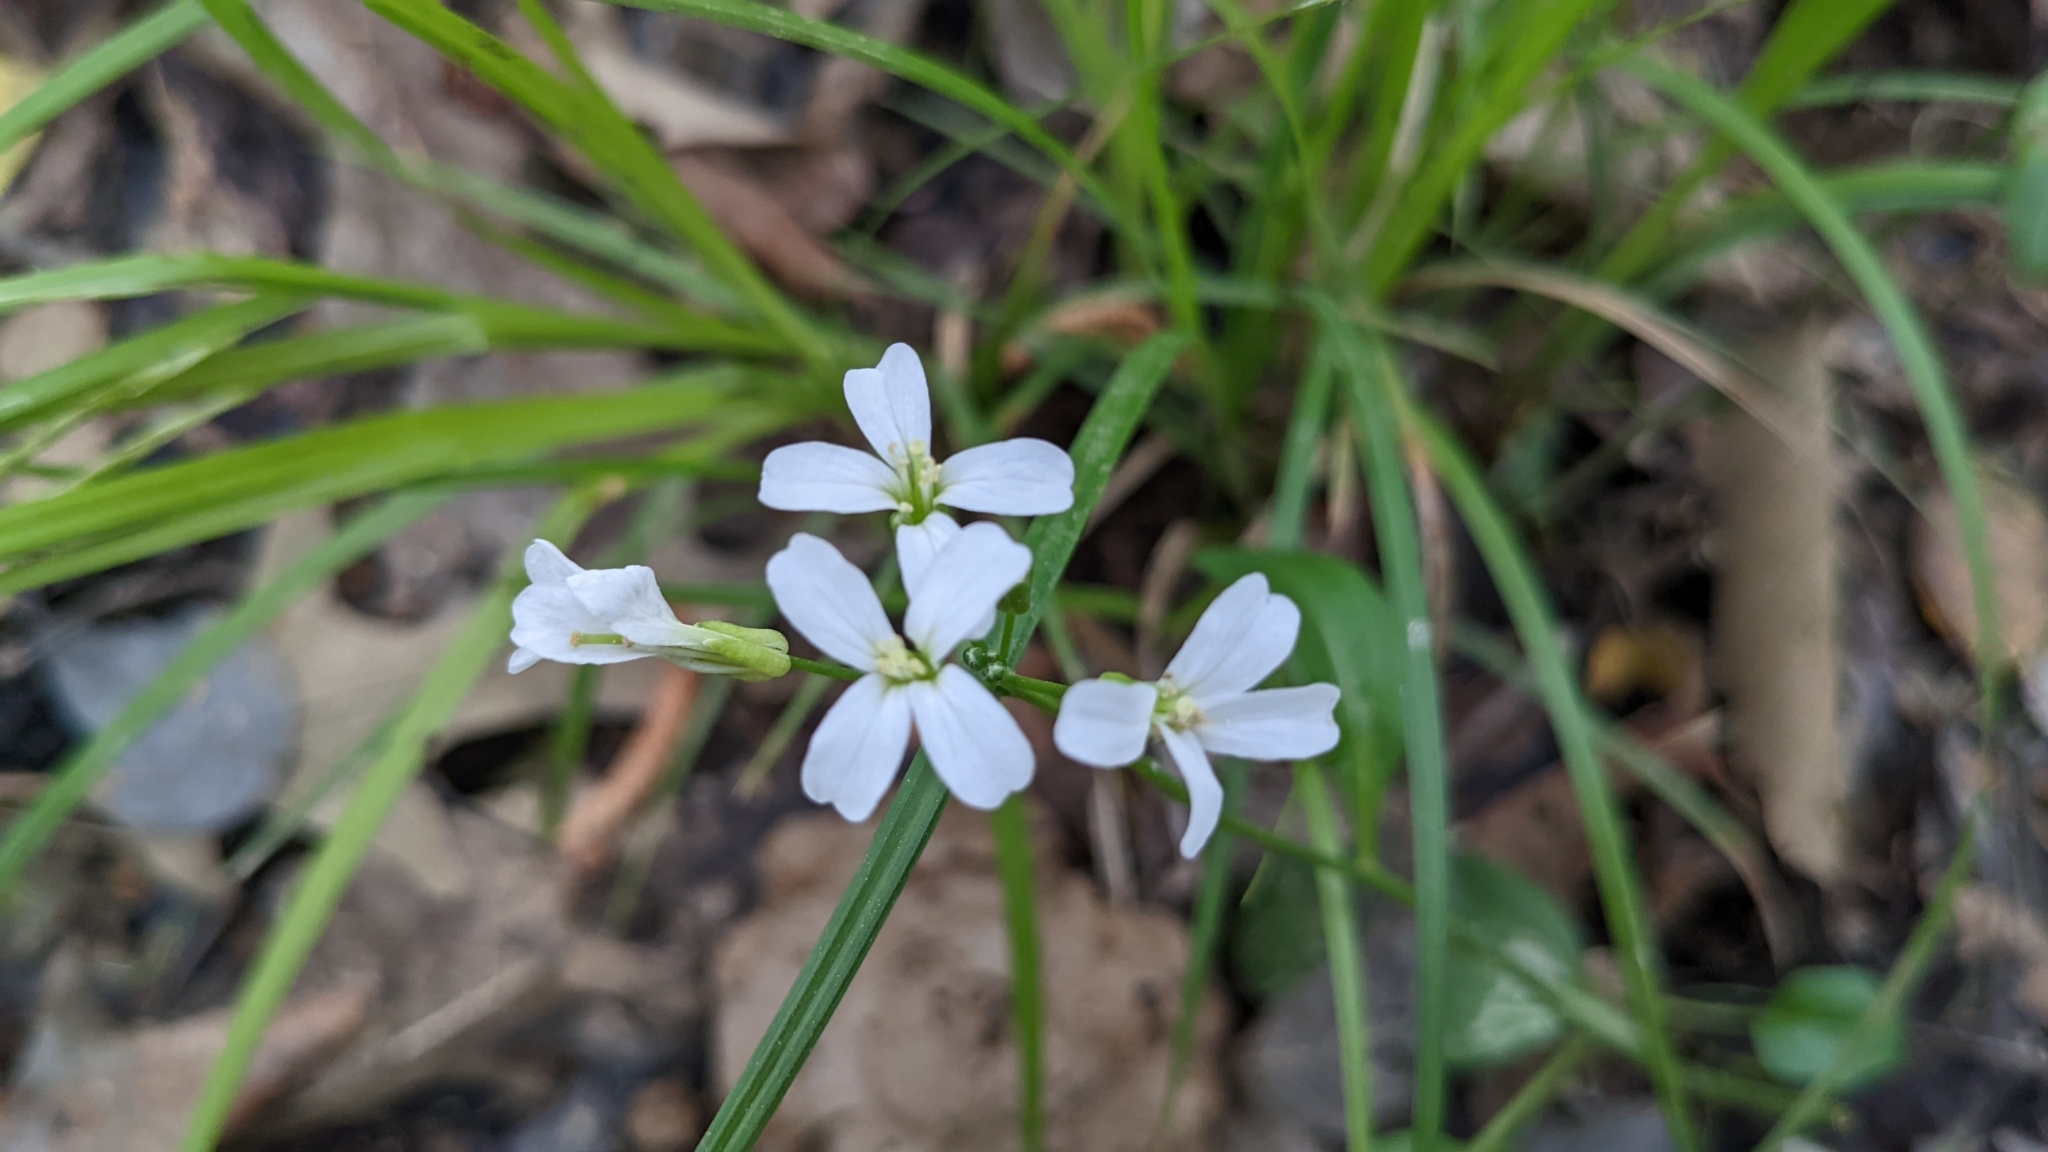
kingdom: Plantae
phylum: Tracheophyta
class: Magnoliopsida
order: Brassicales
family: Brassicaceae
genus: Cardamine
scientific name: Cardamine bulbosa
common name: Spring cress
